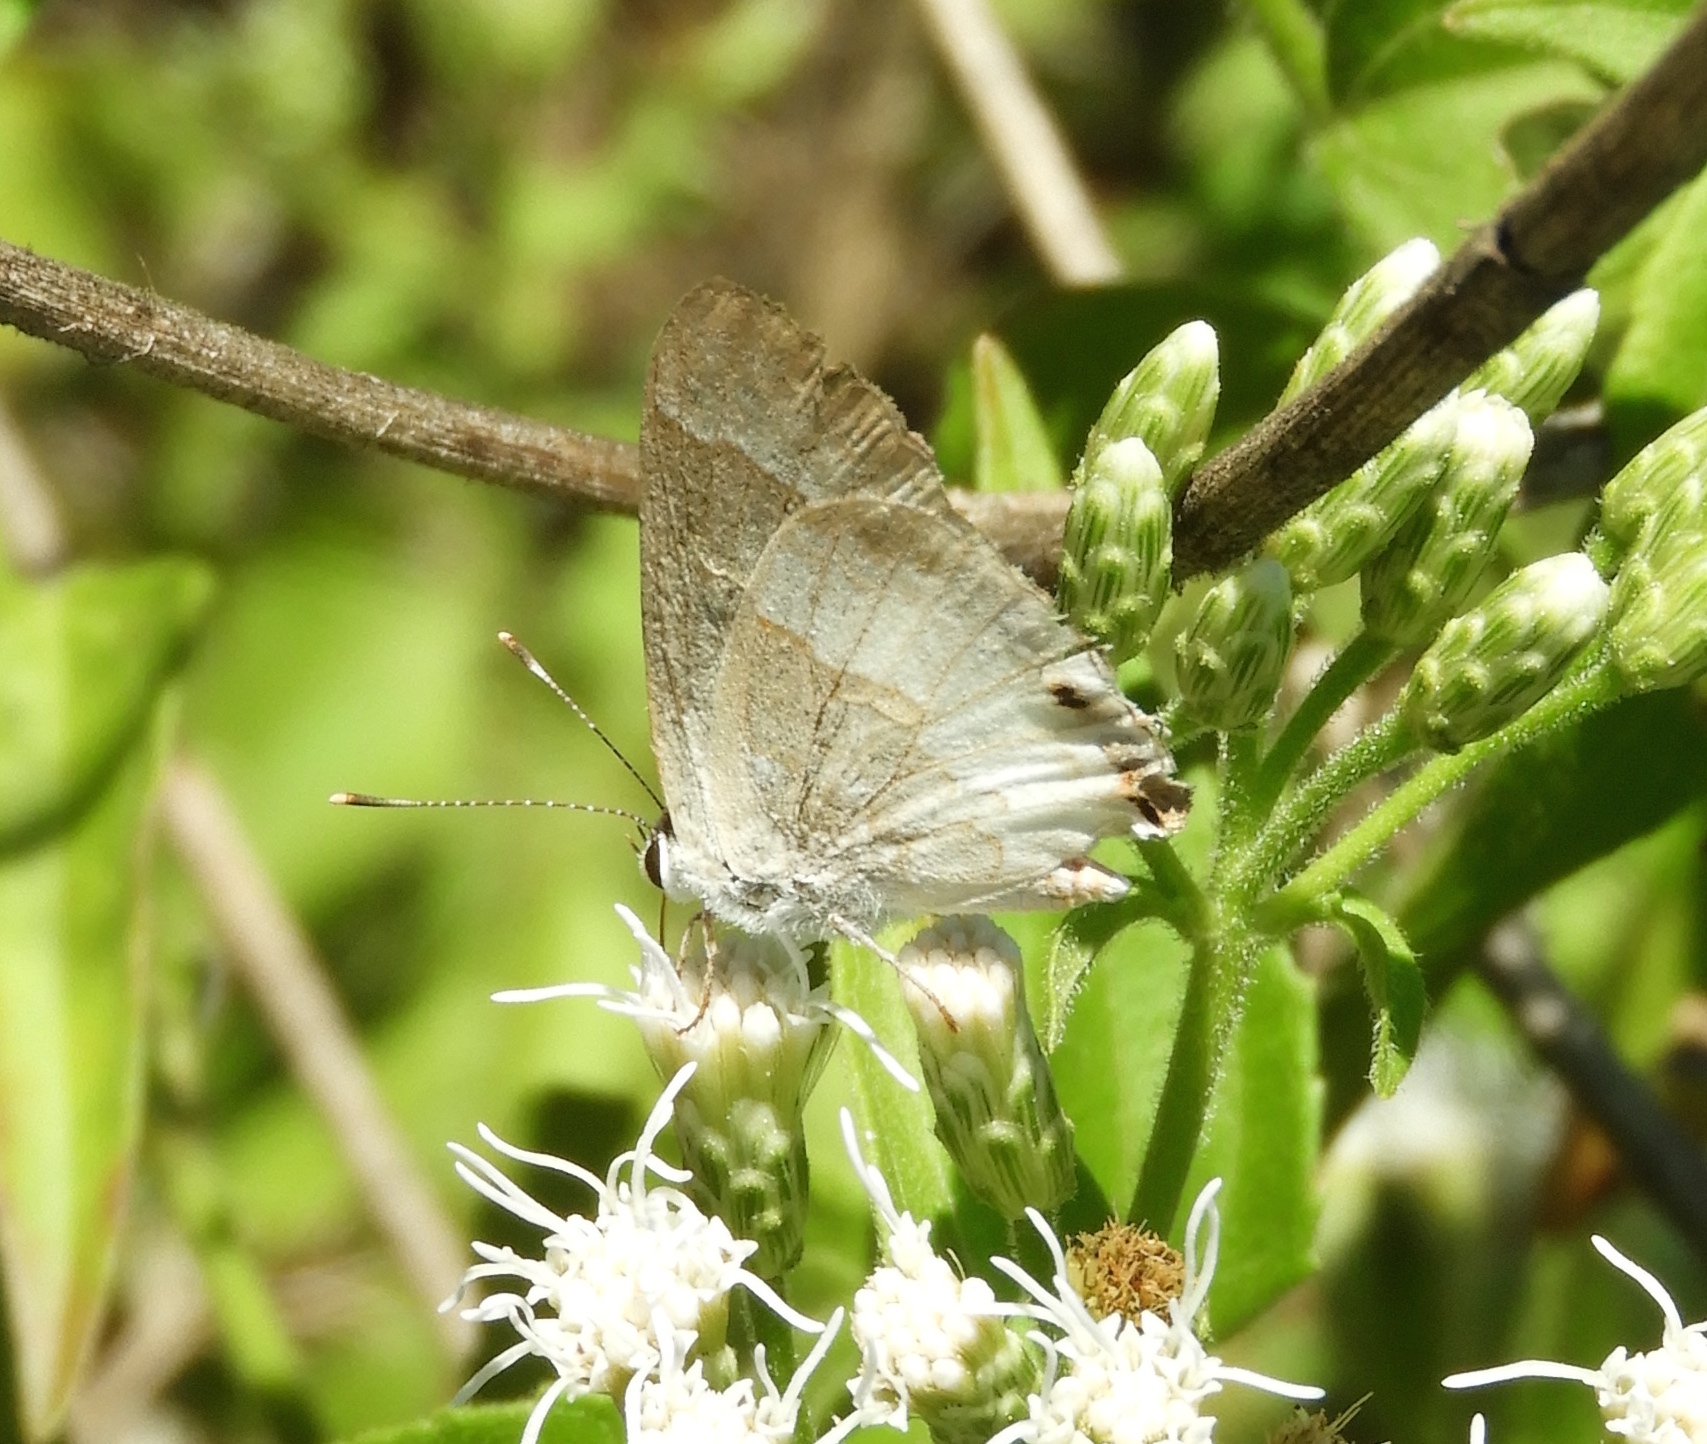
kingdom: Animalia
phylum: Arthropoda
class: Insecta
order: Lepidoptera
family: Lycaenidae
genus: Strymon
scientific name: Strymon albata
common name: White scrub-hairstreak
